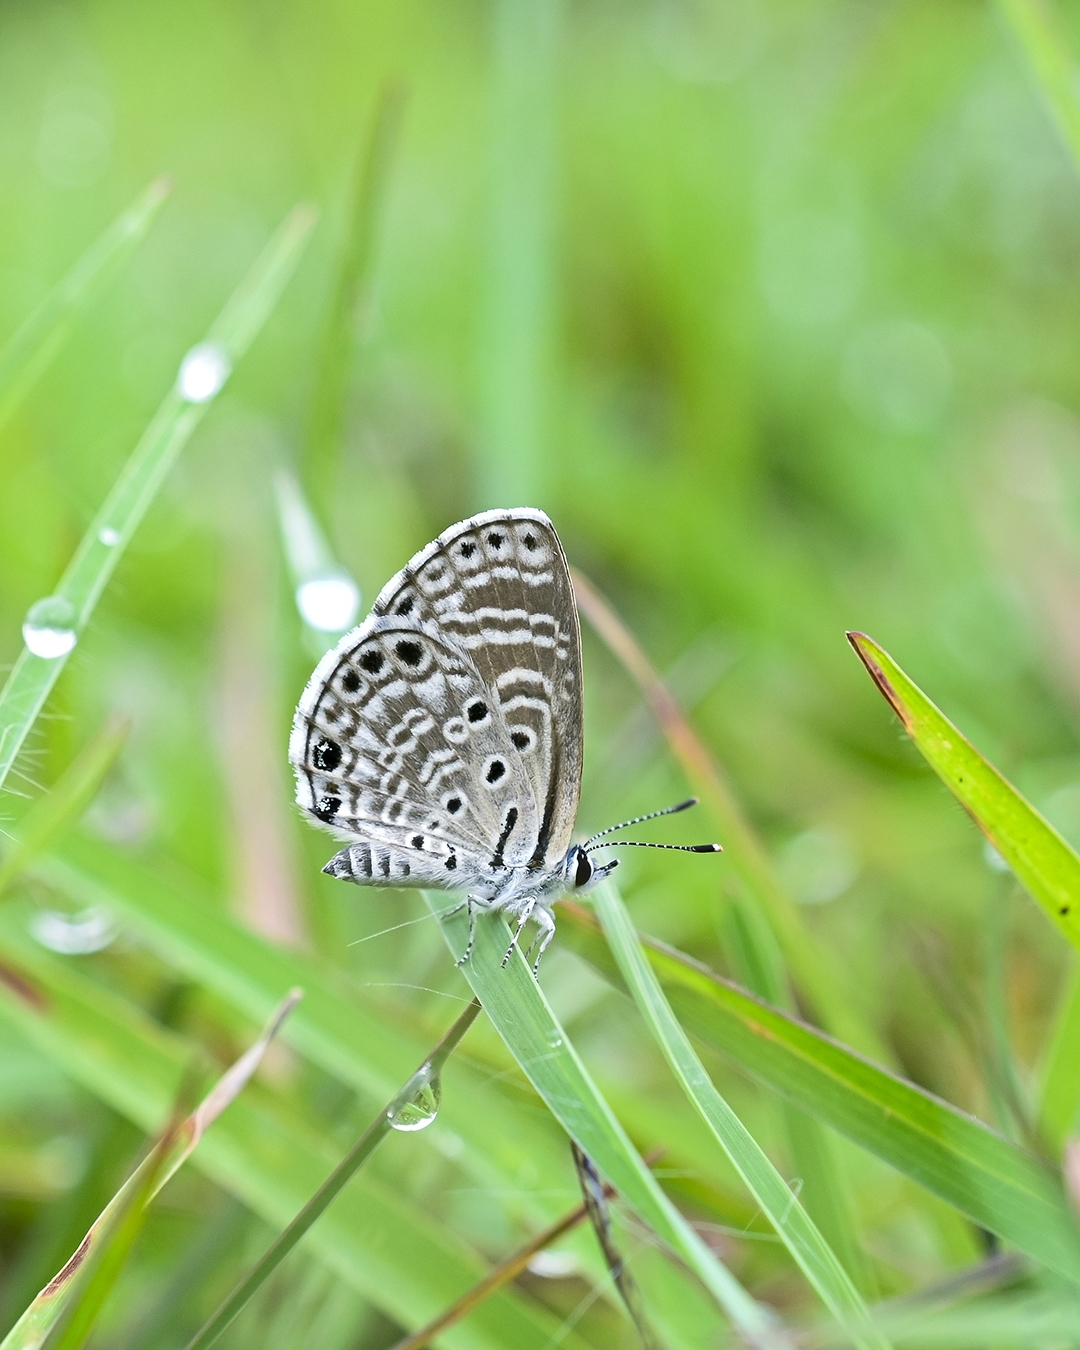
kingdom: Animalia
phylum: Arthropoda
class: Insecta
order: Lepidoptera
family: Lycaenidae
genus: Azanus
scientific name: Azanus jesous
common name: African babul blue
